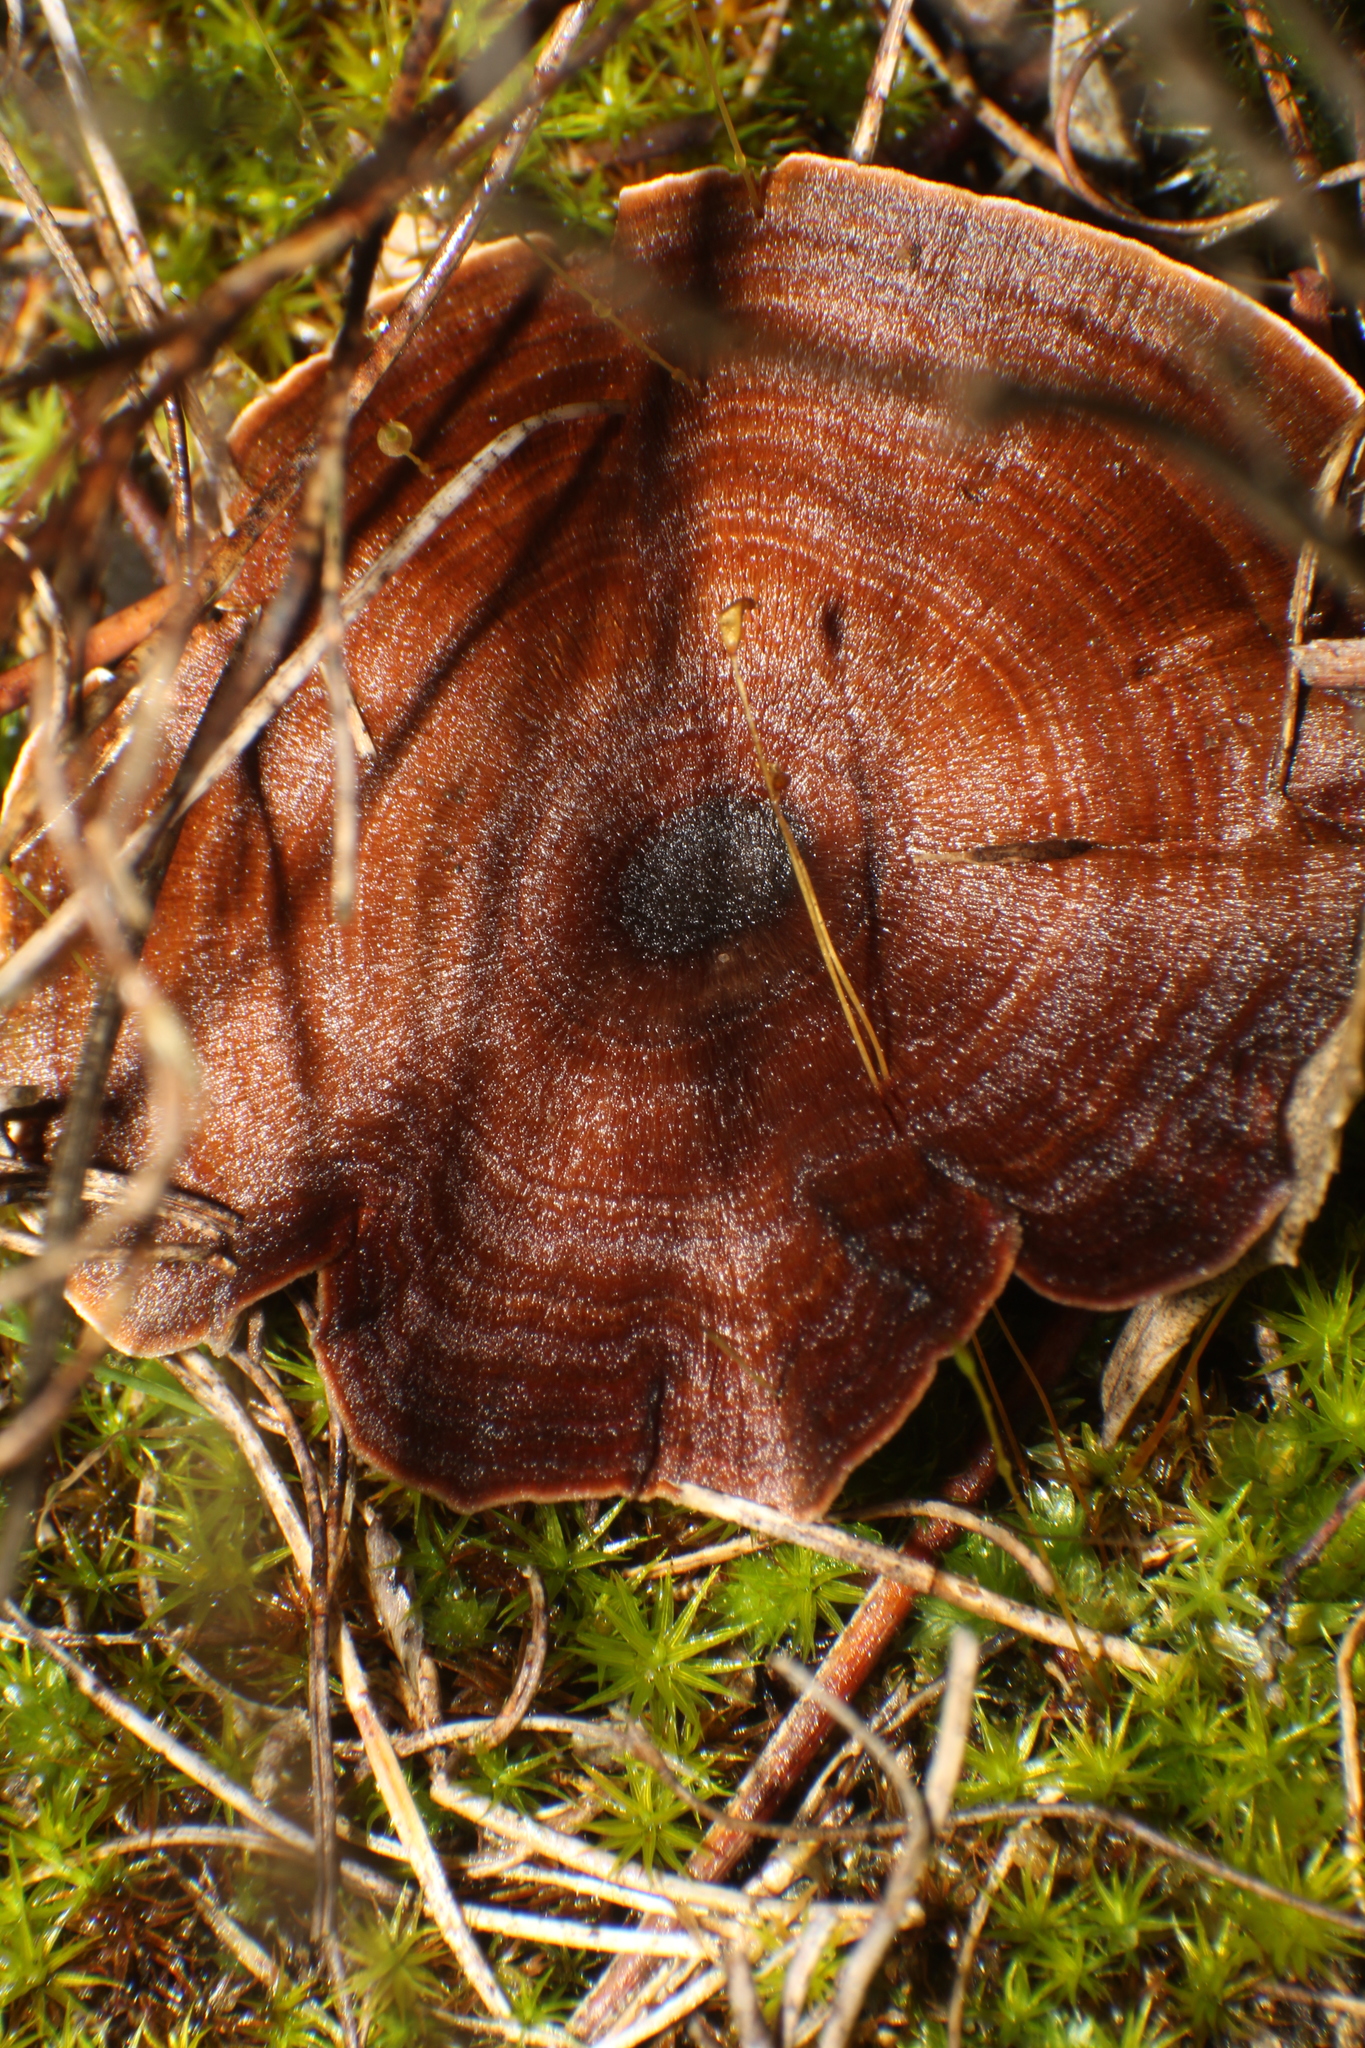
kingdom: Fungi
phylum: Basidiomycota
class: Agaricomycetes
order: Hymenochaetales
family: Hymenochaetaceae
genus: Coltricia
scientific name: Coltricia
